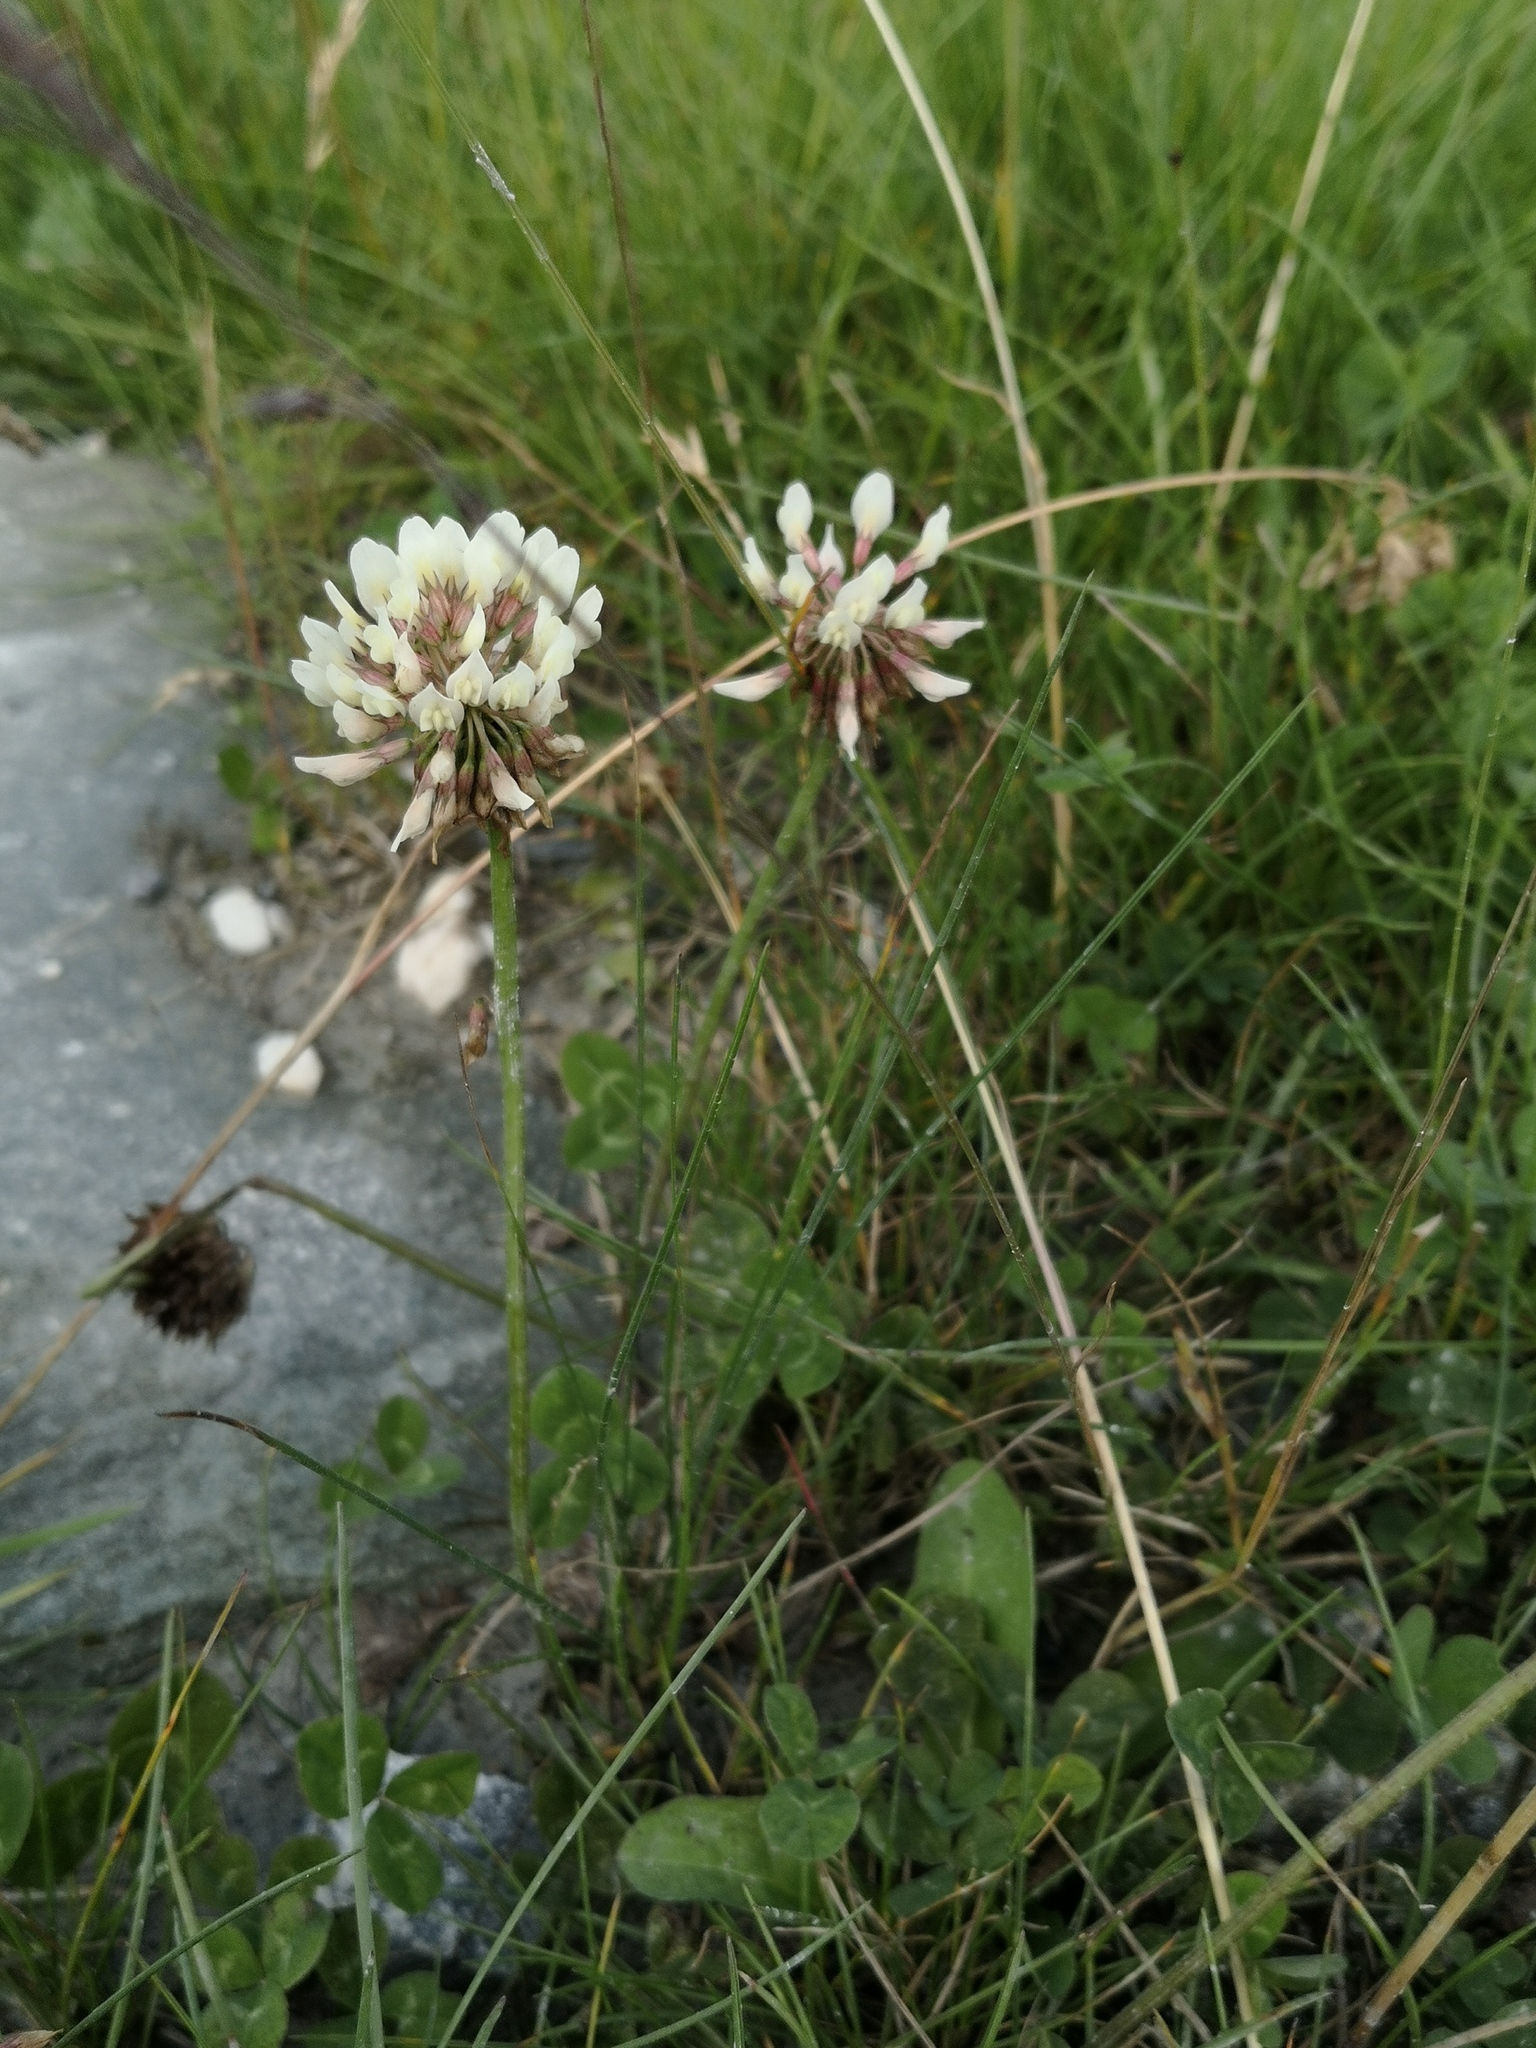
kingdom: Plantae
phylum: Tracheophyta
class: Magnoliopsida
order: Fabales
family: Fabaceae
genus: Trifolium
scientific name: Trifolium repens
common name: White clover
